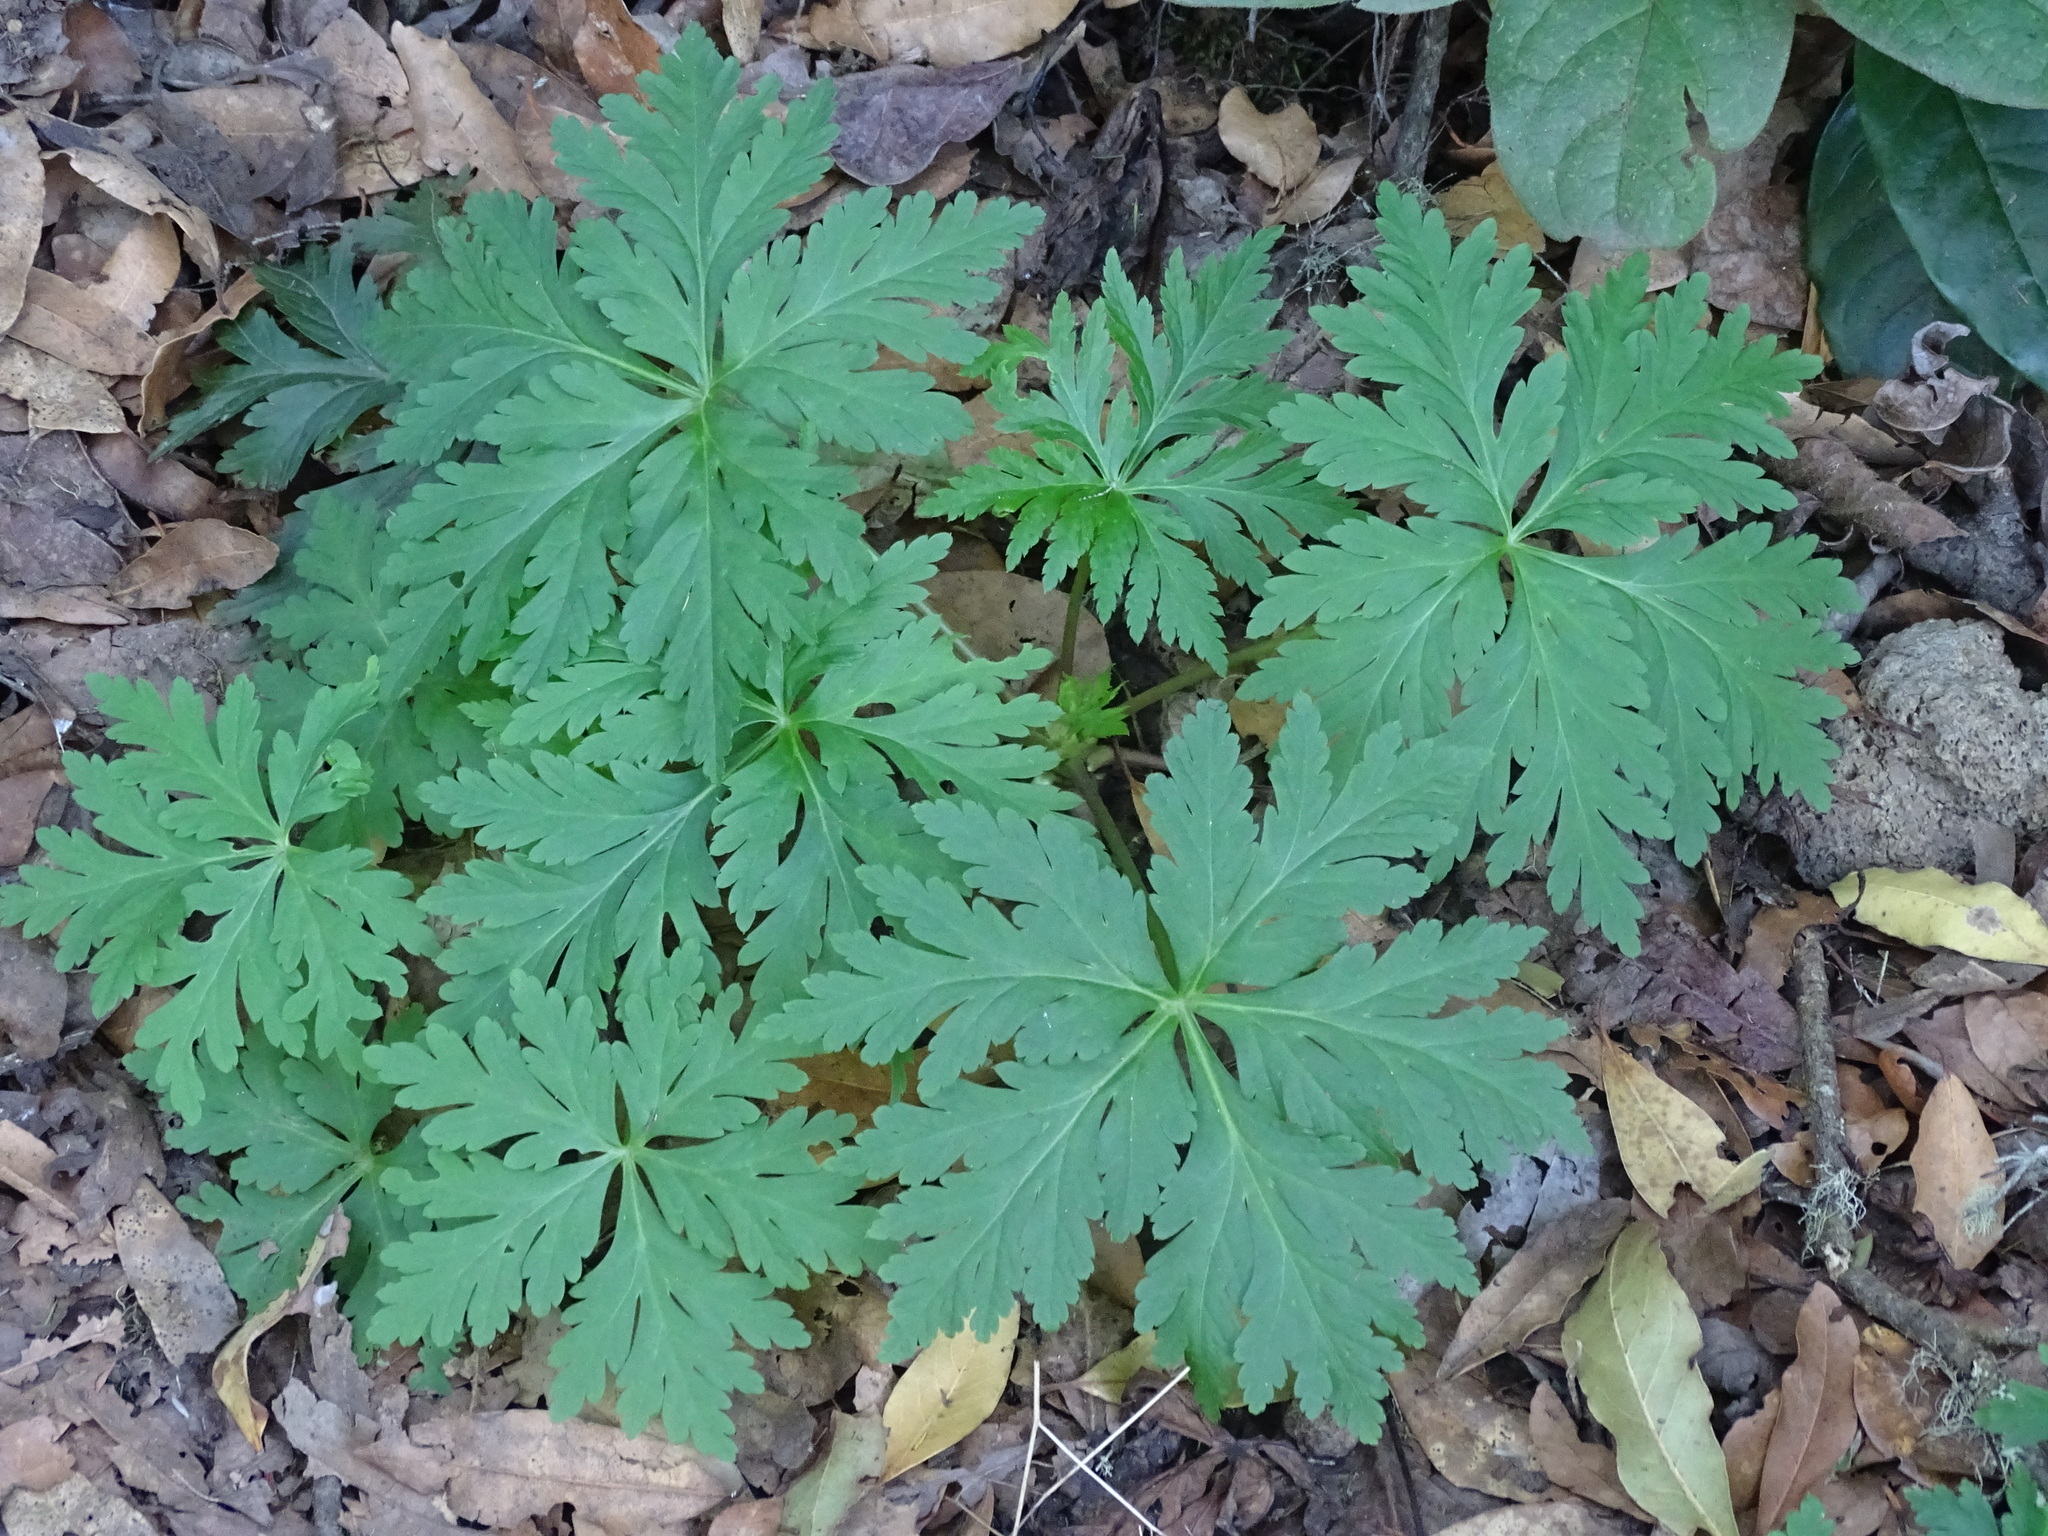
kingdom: Plantae
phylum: Tracheophyta
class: Magnoliopsida
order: Geraniales
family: Geraniaceae
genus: Geranium
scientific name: Geranium reuteri
